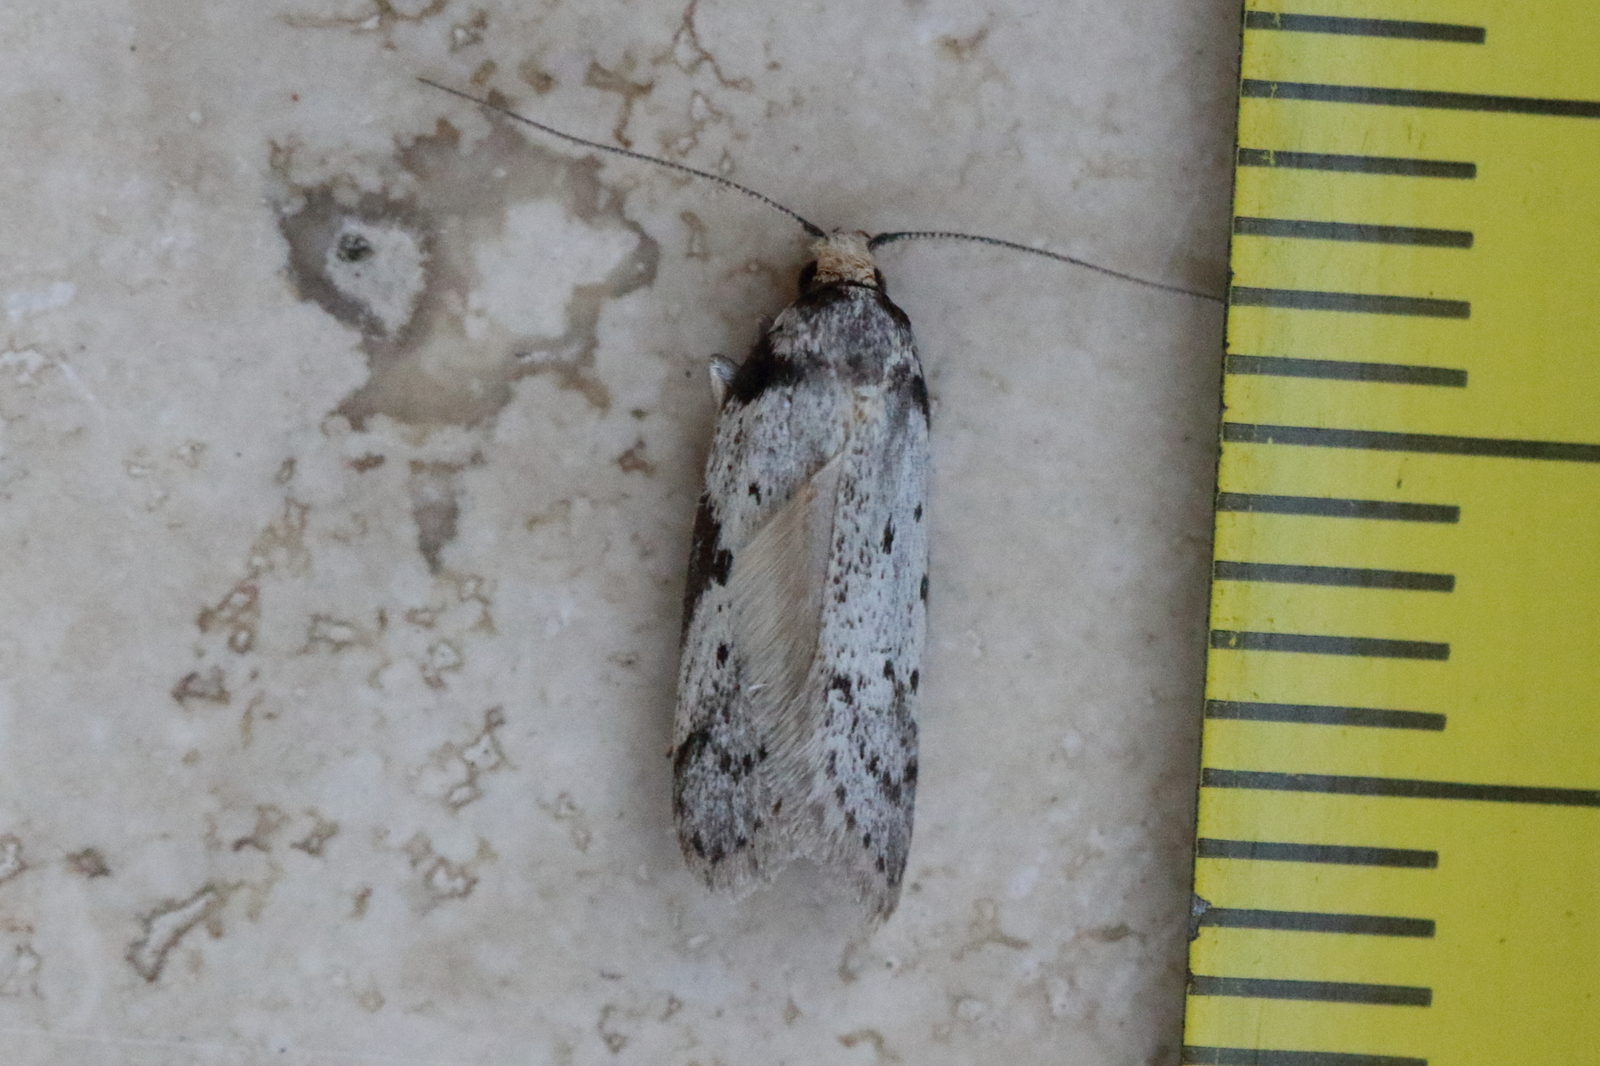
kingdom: Animalia
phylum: Arthropoda
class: Insecta
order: Lepidoptera
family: Oecophoridae
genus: Philobota
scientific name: Philobota transversella
